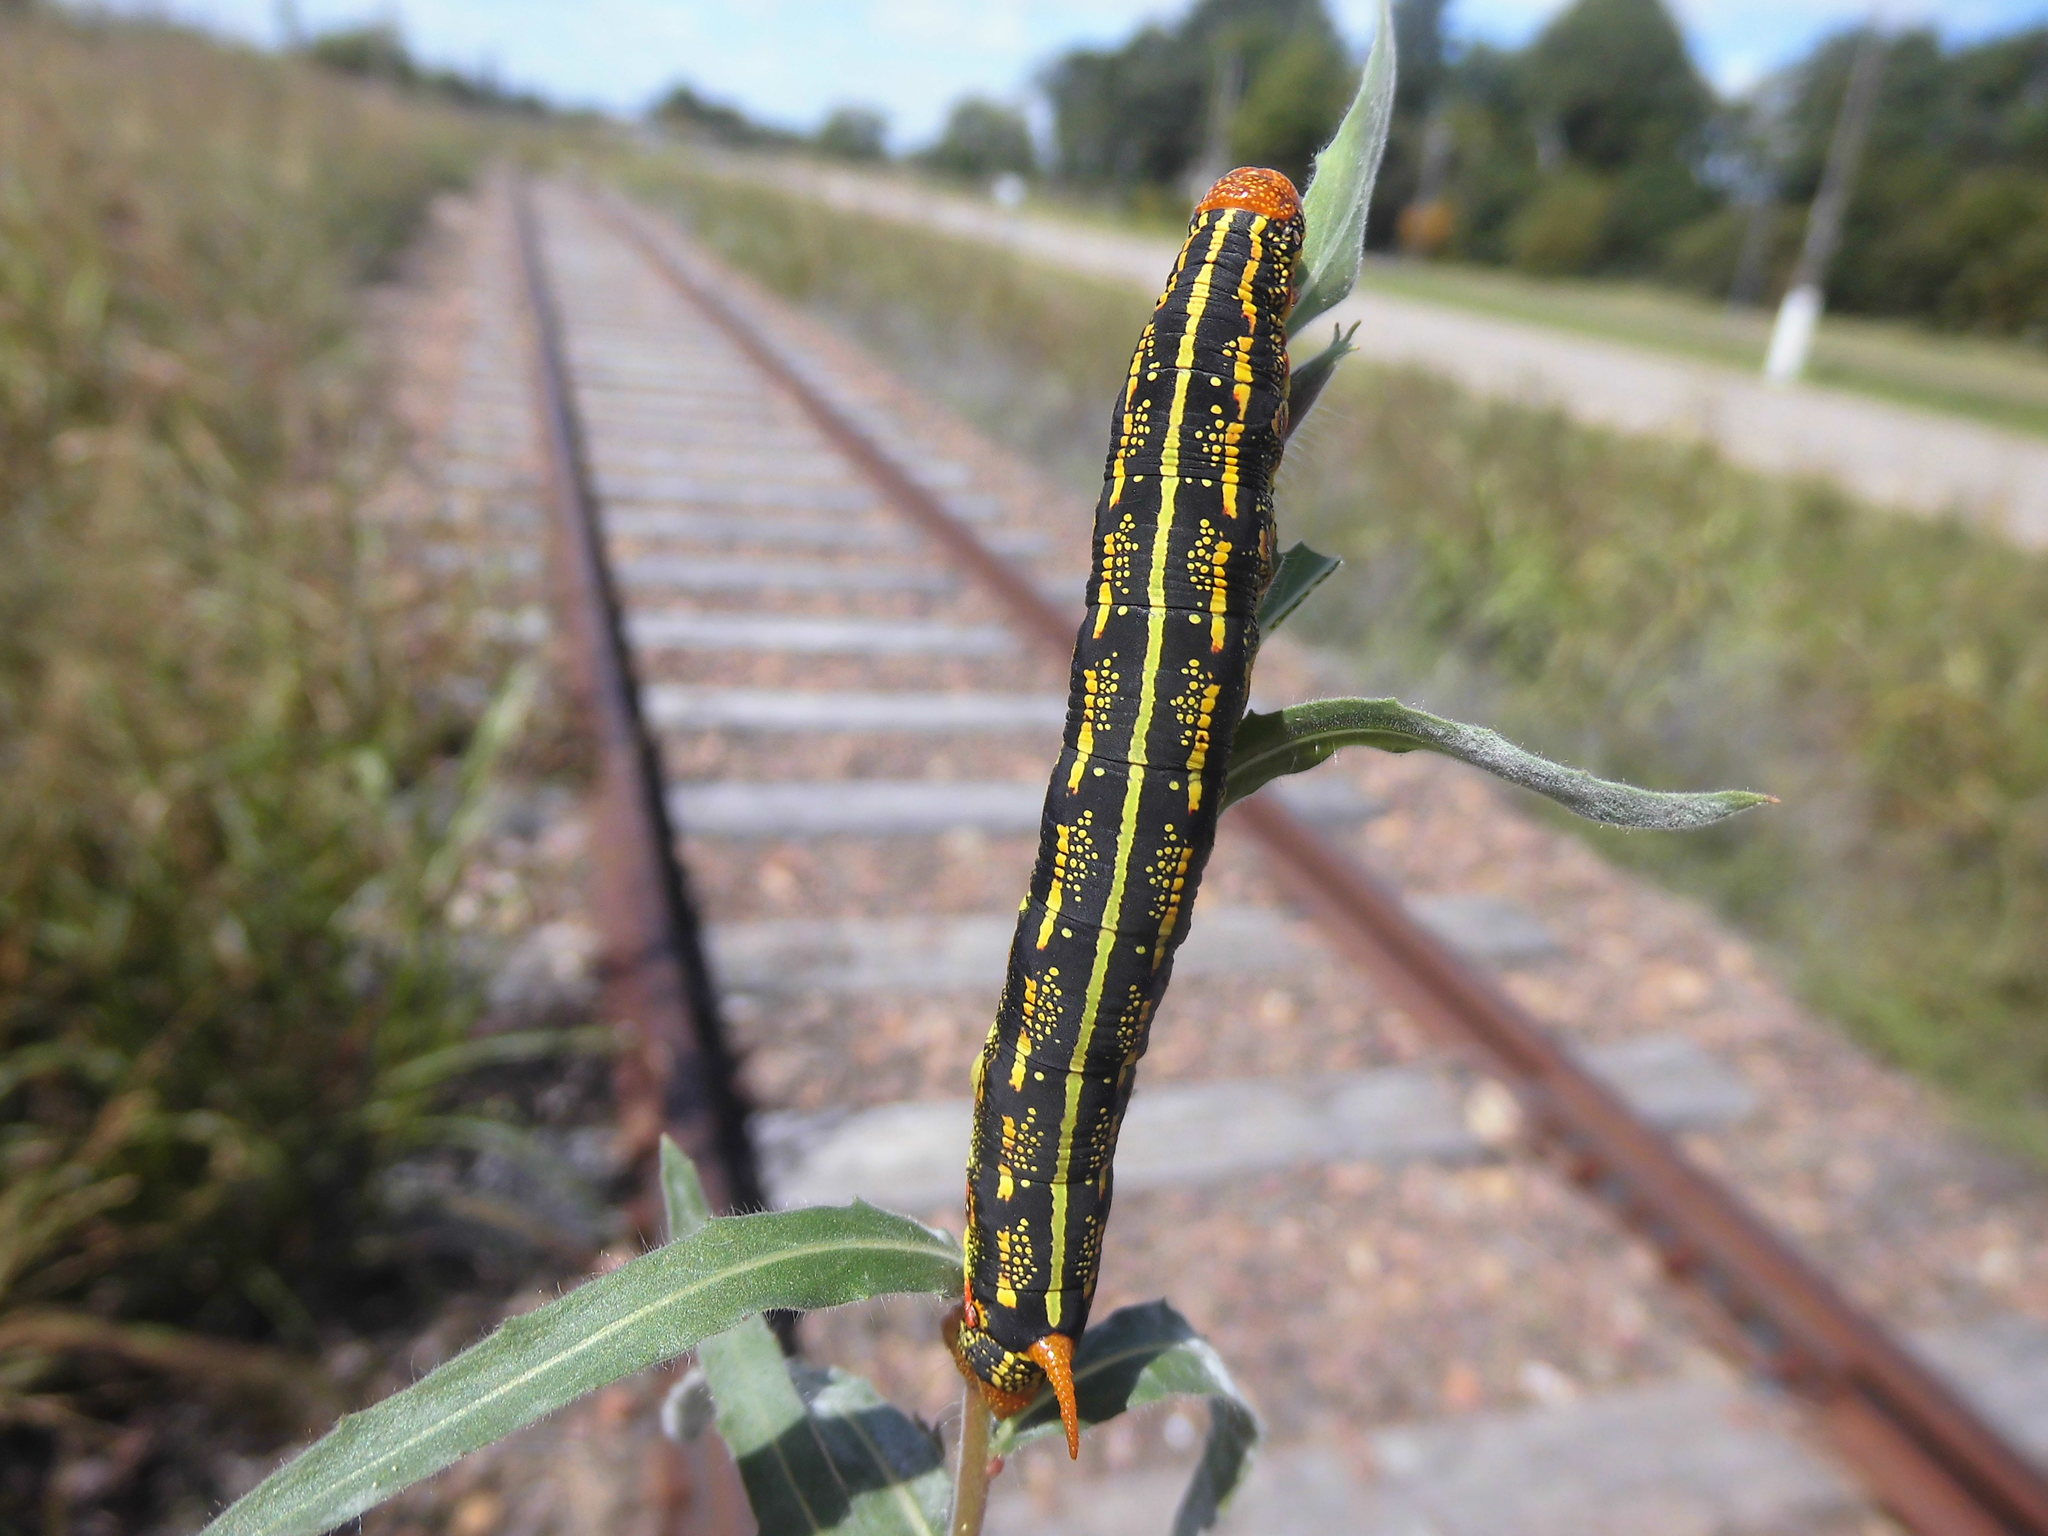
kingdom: Animalia
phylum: Arthropoda
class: Insecta
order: Lepidoptera
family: Sphingidae
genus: Hyles
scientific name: Hyles lineata
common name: White-lined sphinx
